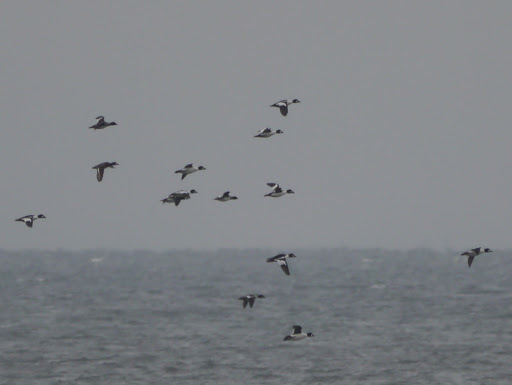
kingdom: Animalia
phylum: Chordata
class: Aves
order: Anseriformes
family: Anatidae
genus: Bucephala
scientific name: Bucephala clangula
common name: Common goldeneye
